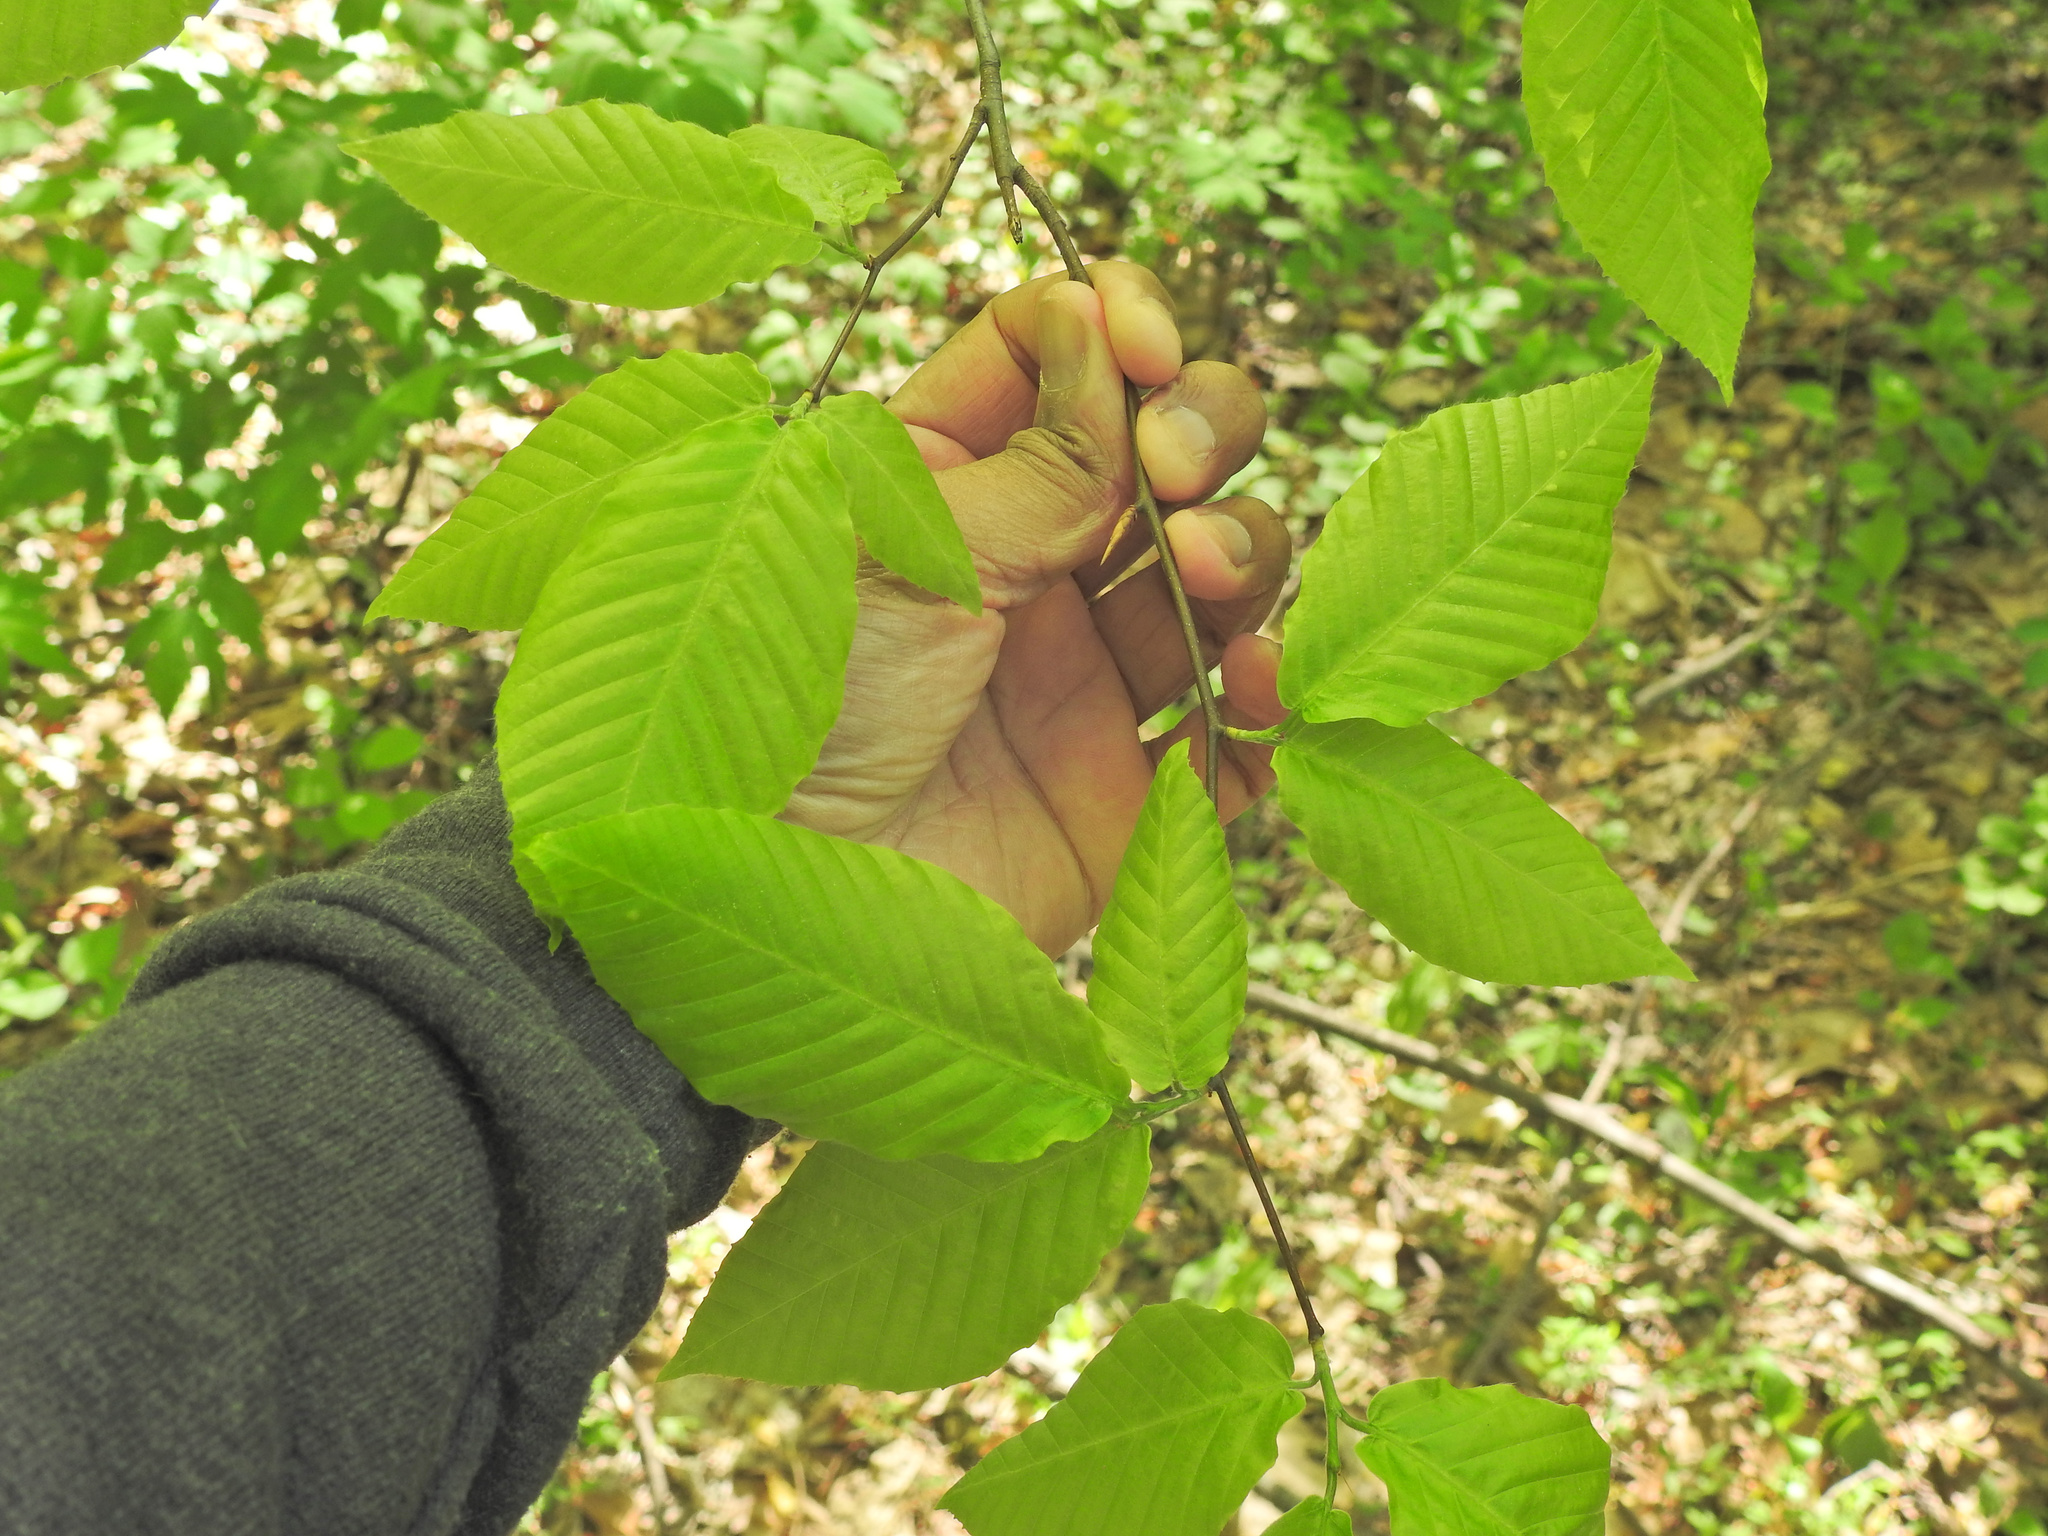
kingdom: Plantae
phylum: Tracheophyta
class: Magnoliopsida
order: Fagales
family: Fagaceae
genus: Fagus
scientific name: Fagus grandifolia
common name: American beech
